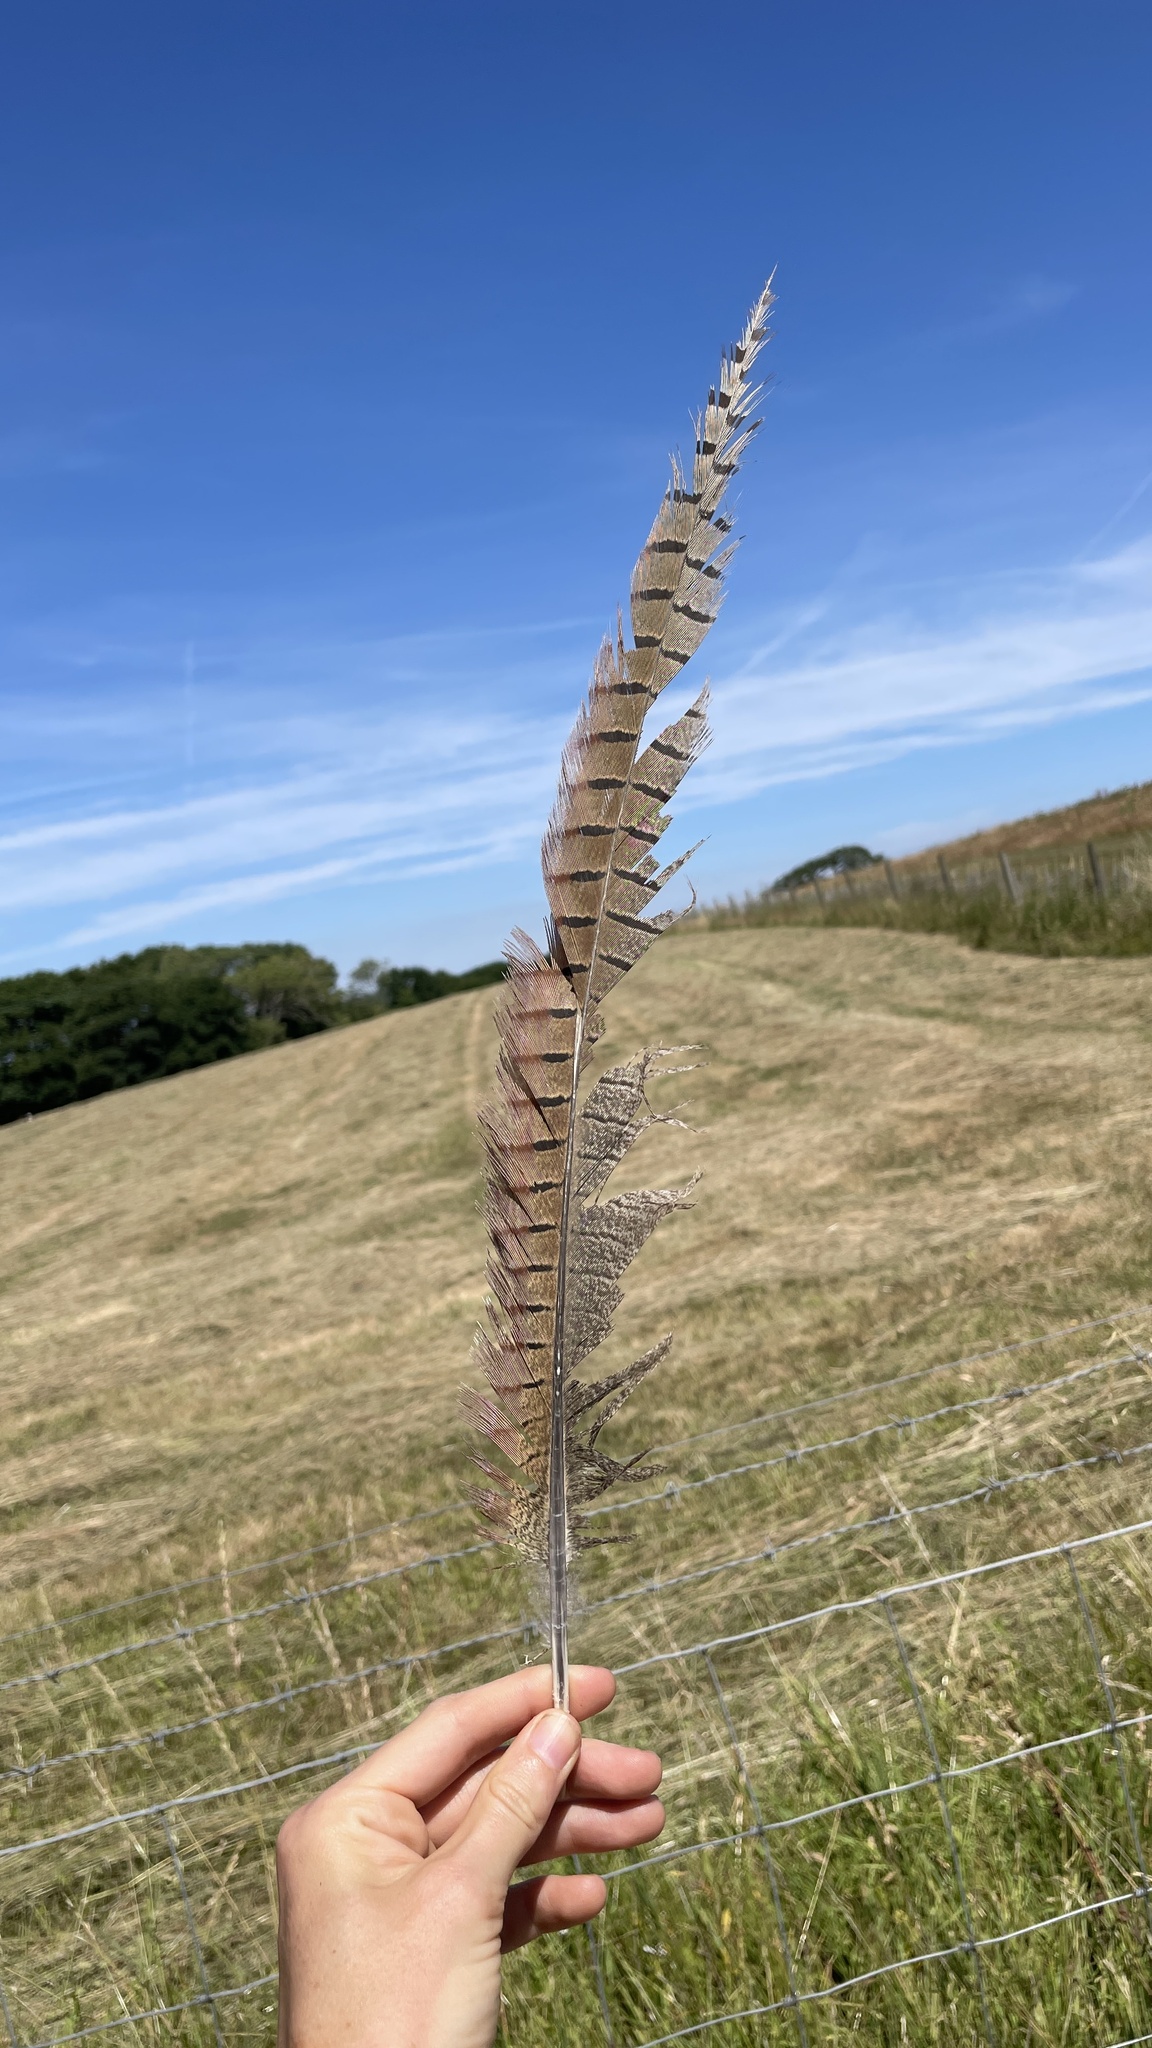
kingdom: Animalia
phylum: Chordata
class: Aves
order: Galliformes
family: Phasianidae
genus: Phasianus
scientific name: Phasianus colchicus
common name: Common pheasant
